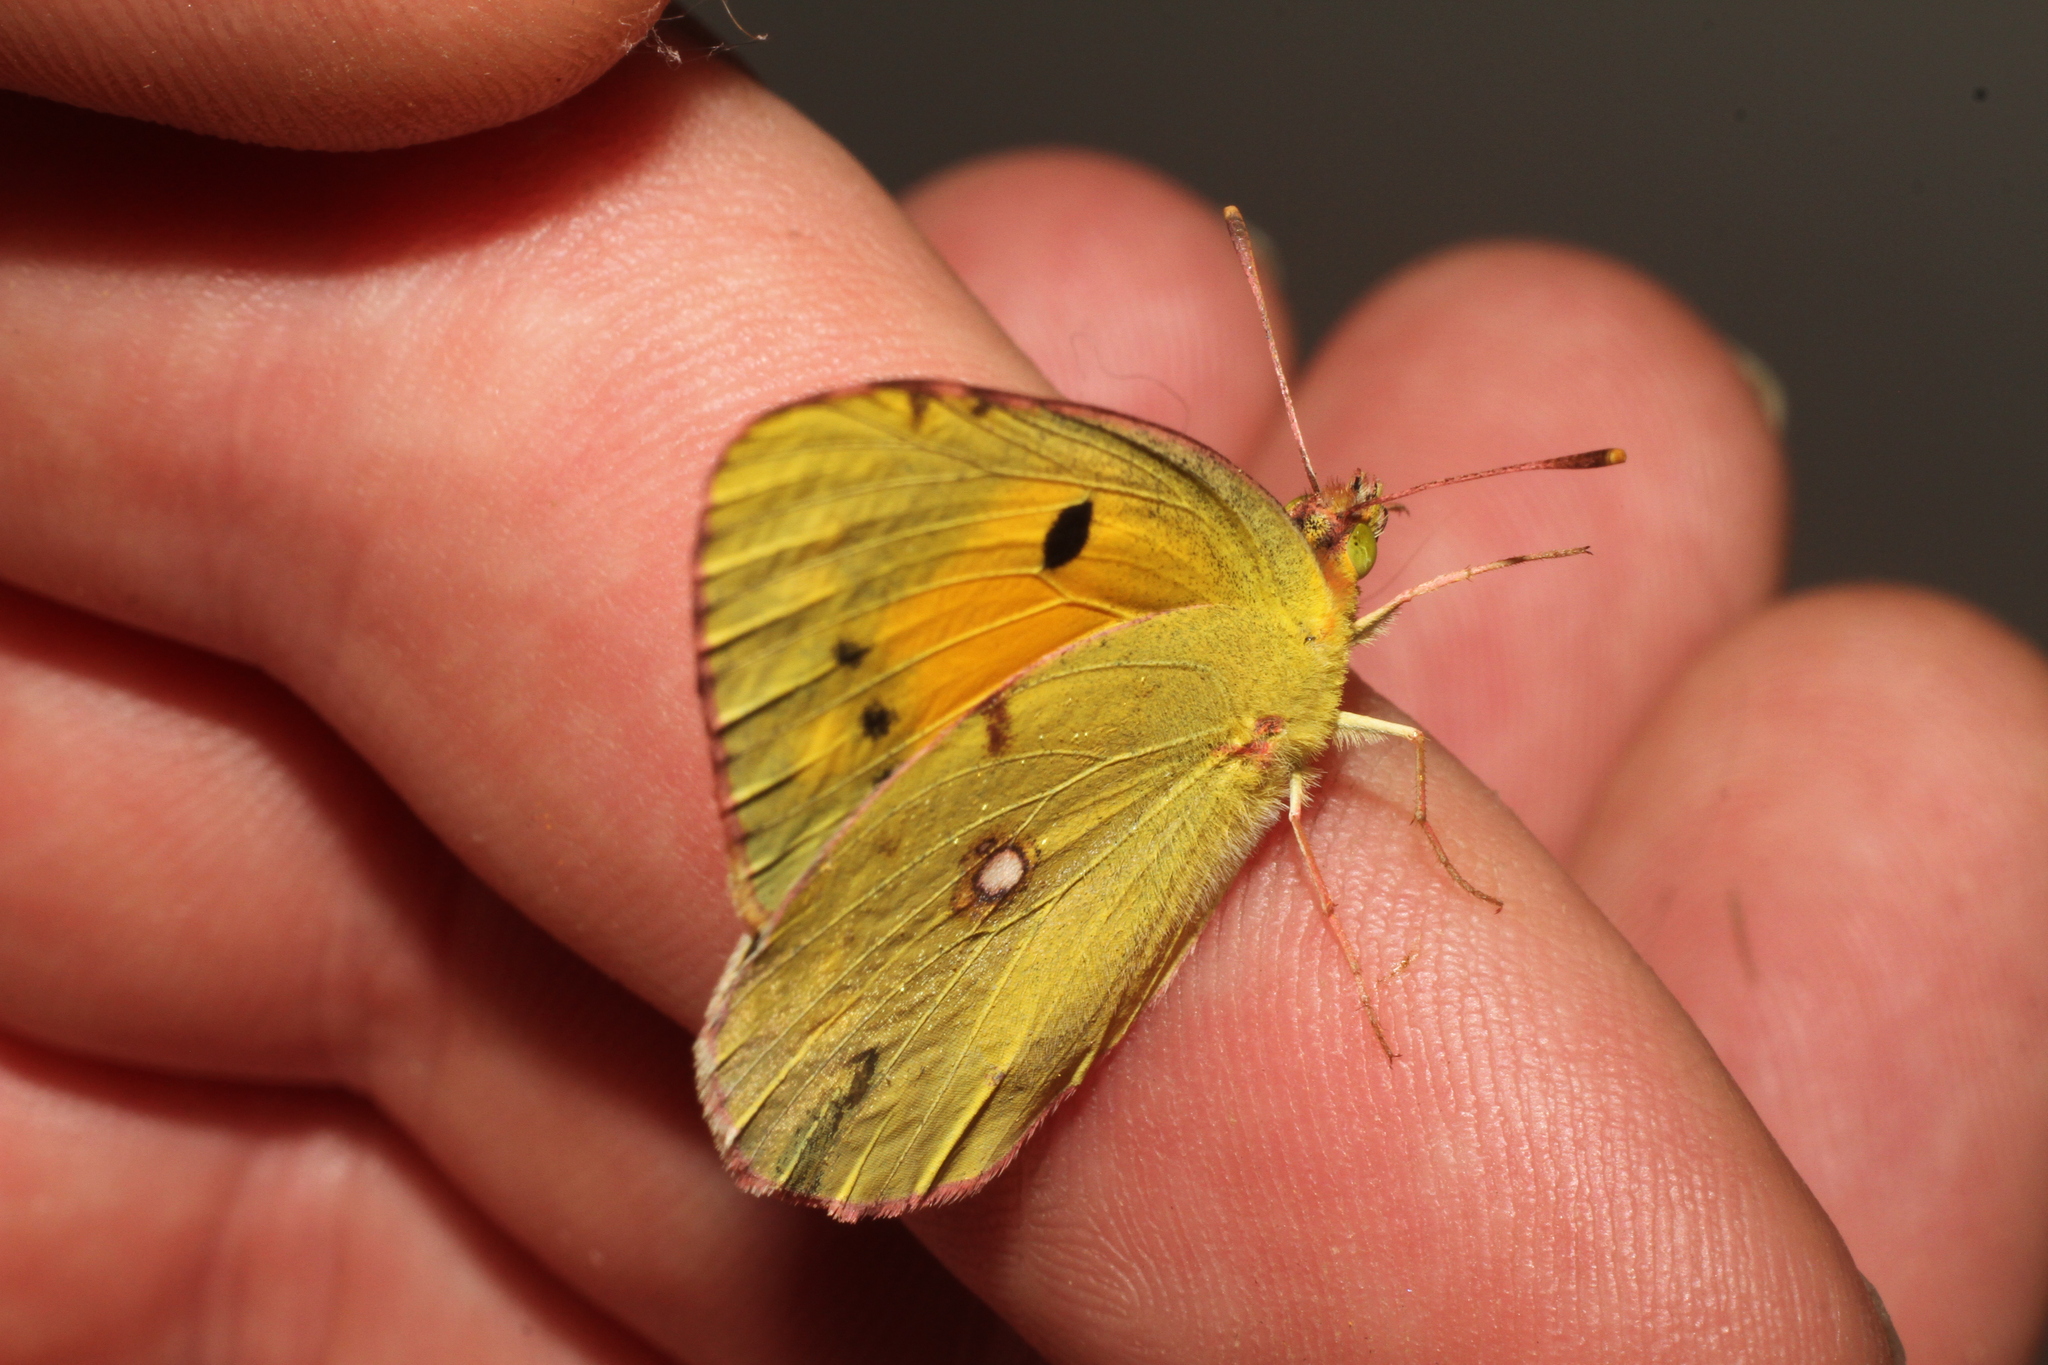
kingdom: Animalia
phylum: Arthropoda
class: Insecta
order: Lepidoptera
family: Pieridae
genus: Colias
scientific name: Colias croceus
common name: Clouded yellow
